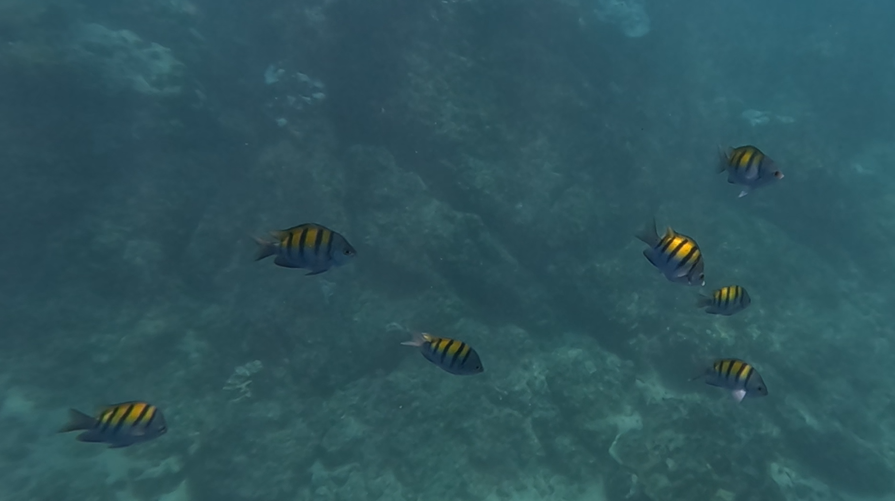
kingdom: Animalia
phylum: Chordata
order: Perciformes
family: Pomacentridae
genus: Abudefduf
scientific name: Abudefduf troschelii
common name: Panamic sergeant major
